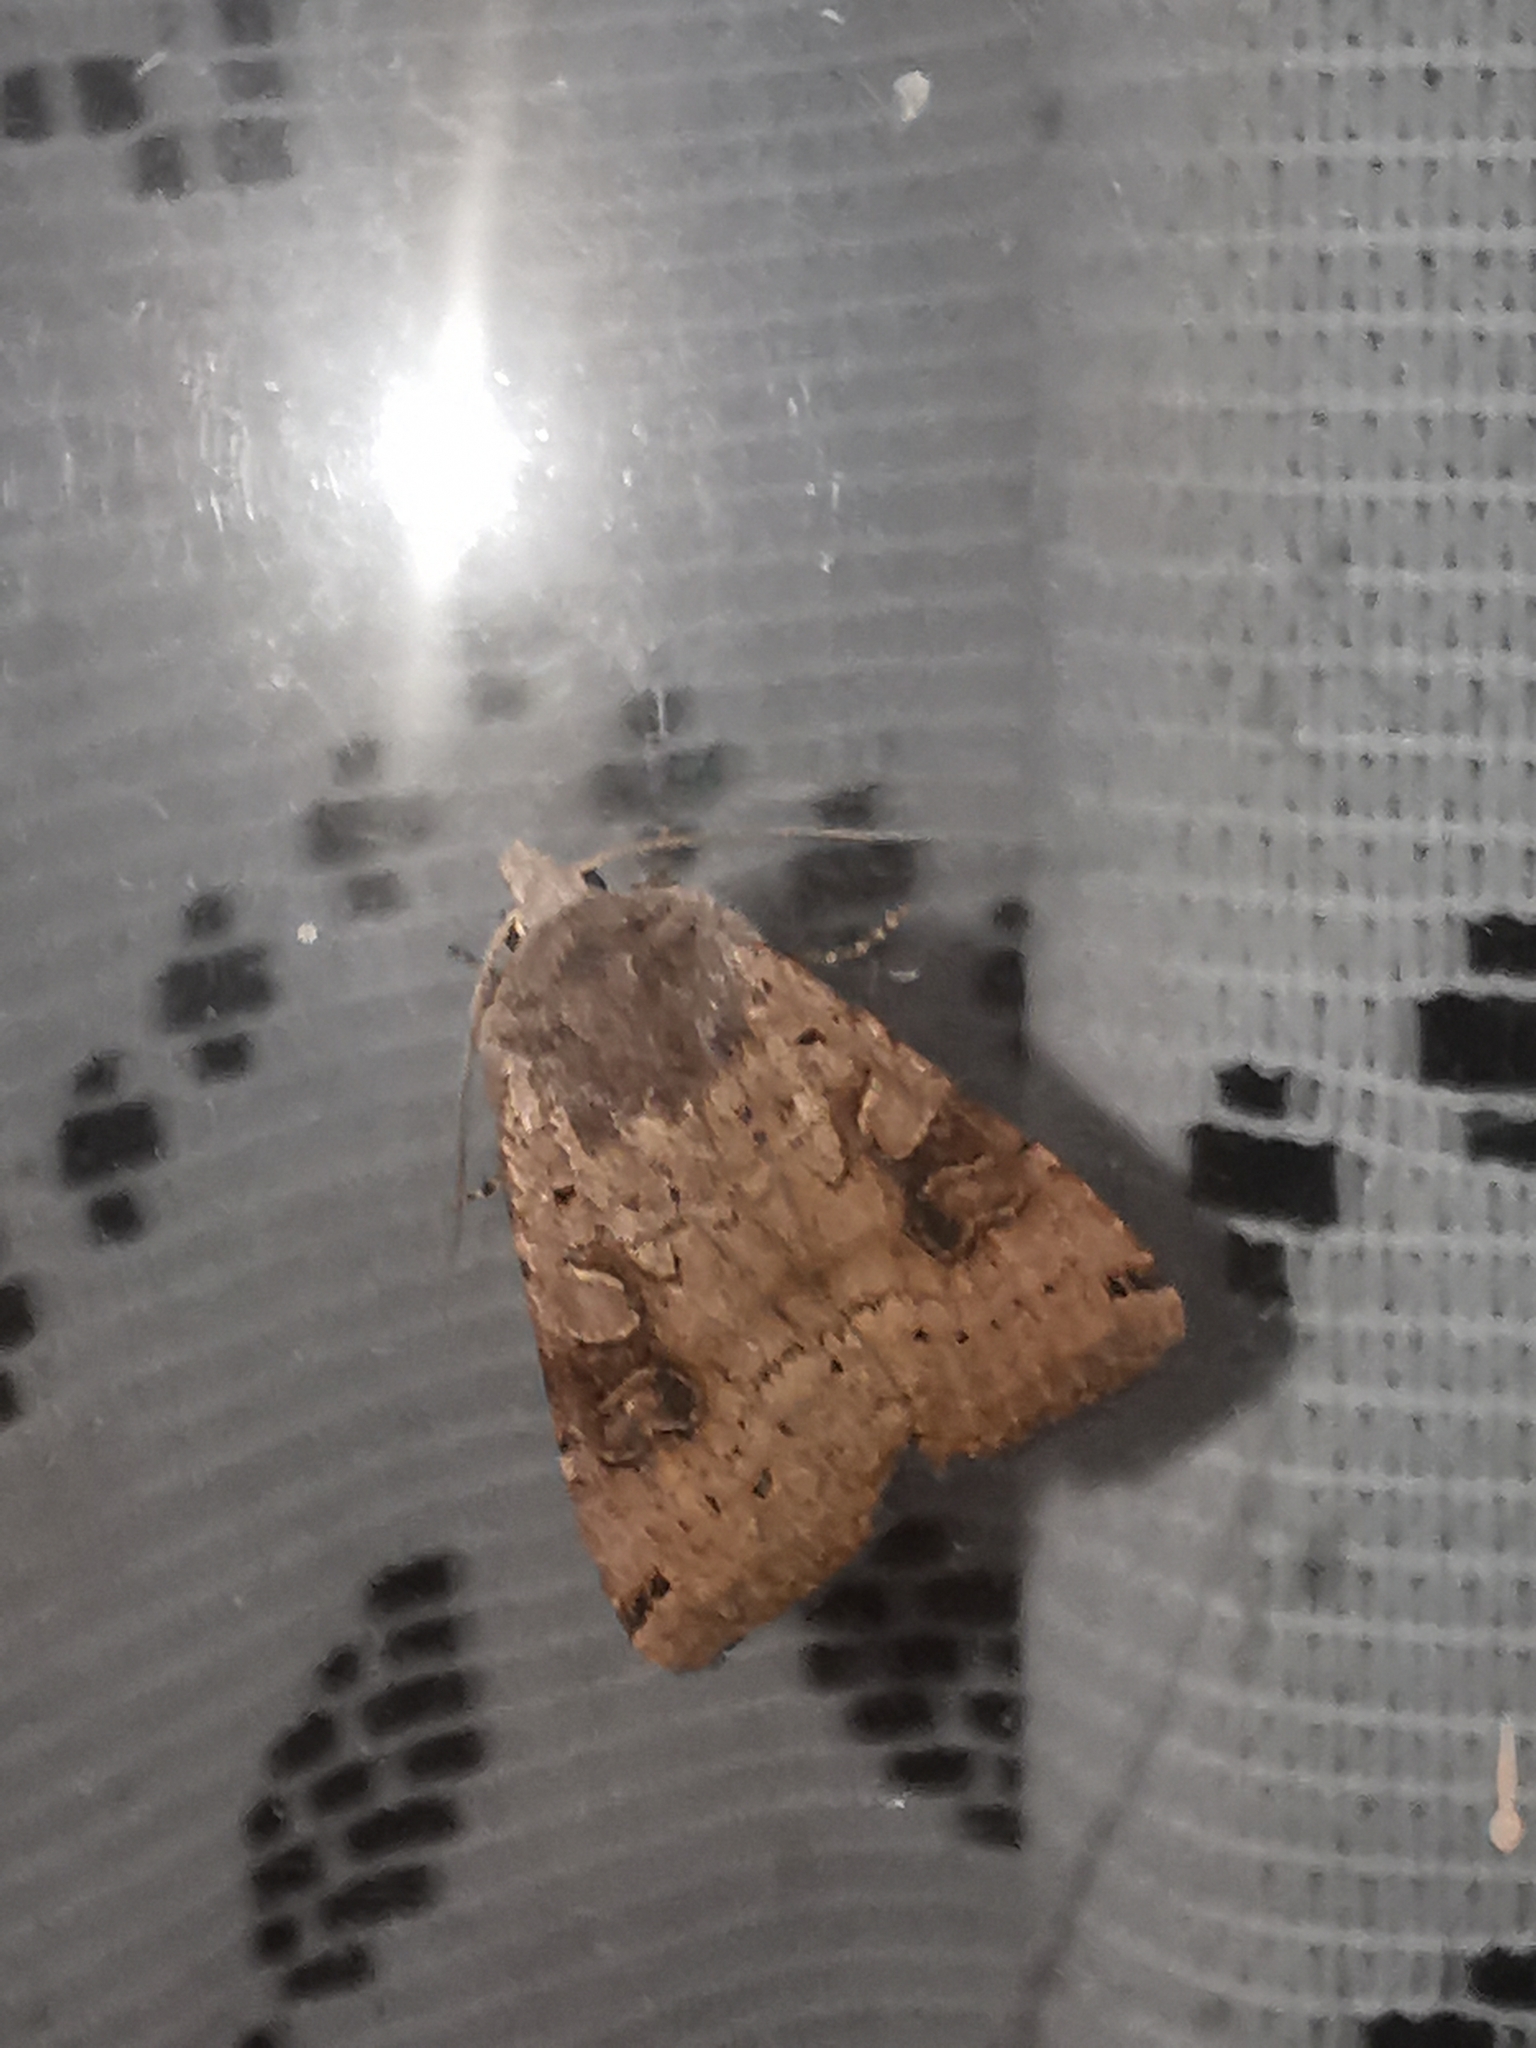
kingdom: Animalia
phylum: Arthropoda
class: Insecta
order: Lepidoptera
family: Noctuidae
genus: Xestia
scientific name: Xestia baja
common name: Dotted clay
